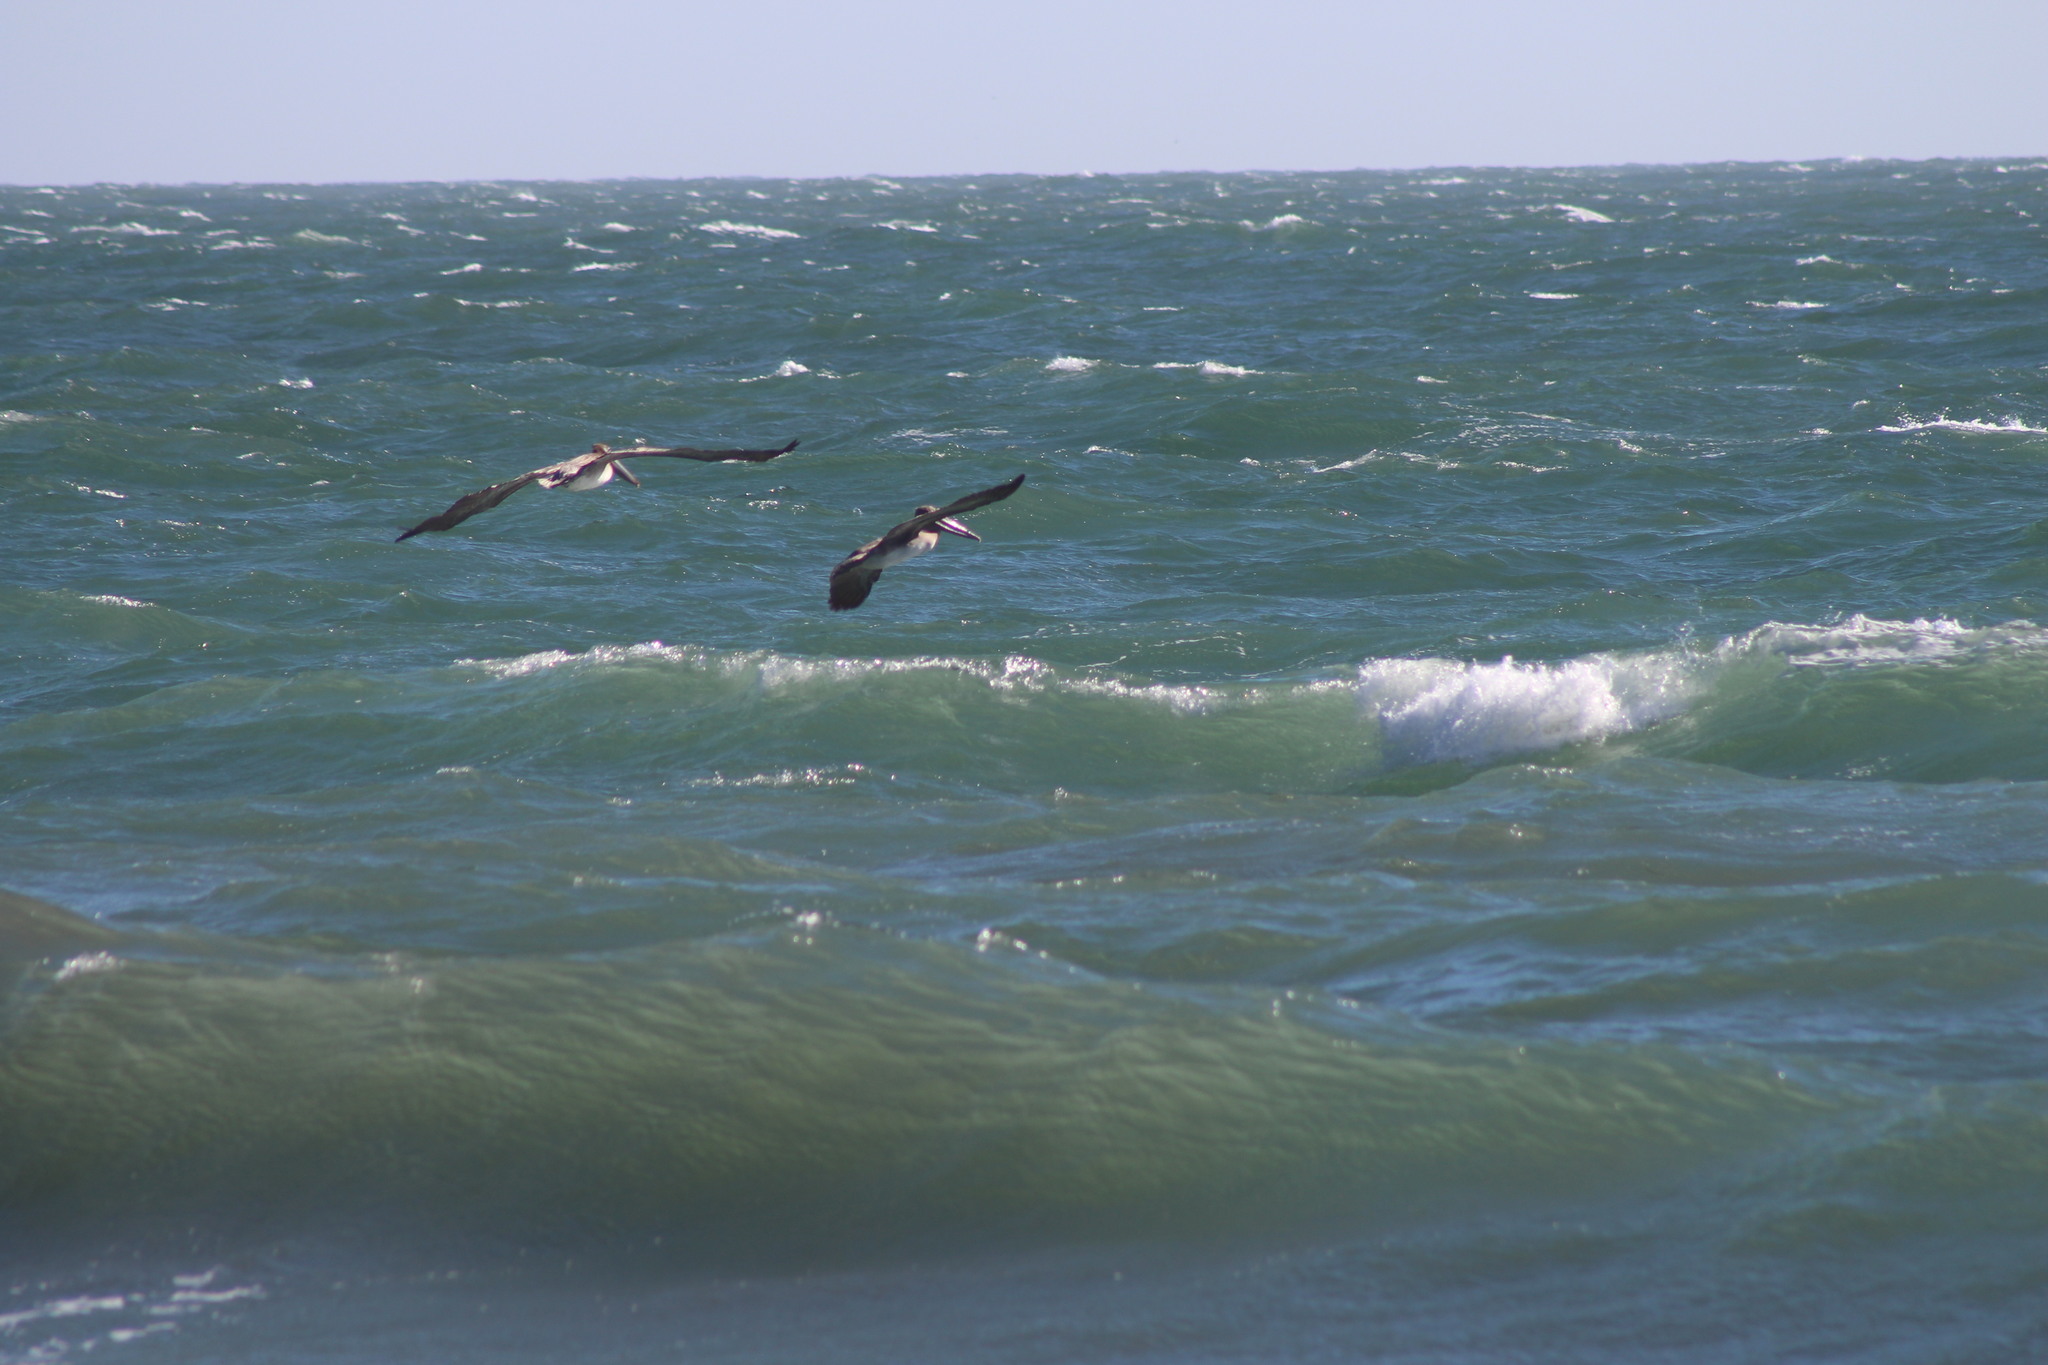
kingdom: Animalia
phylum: Chordata
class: Aves
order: Pelecaniformes
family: Pelecanidae
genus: Pelecanus
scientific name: Pelecanus occidentalis
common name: Brown pelican
